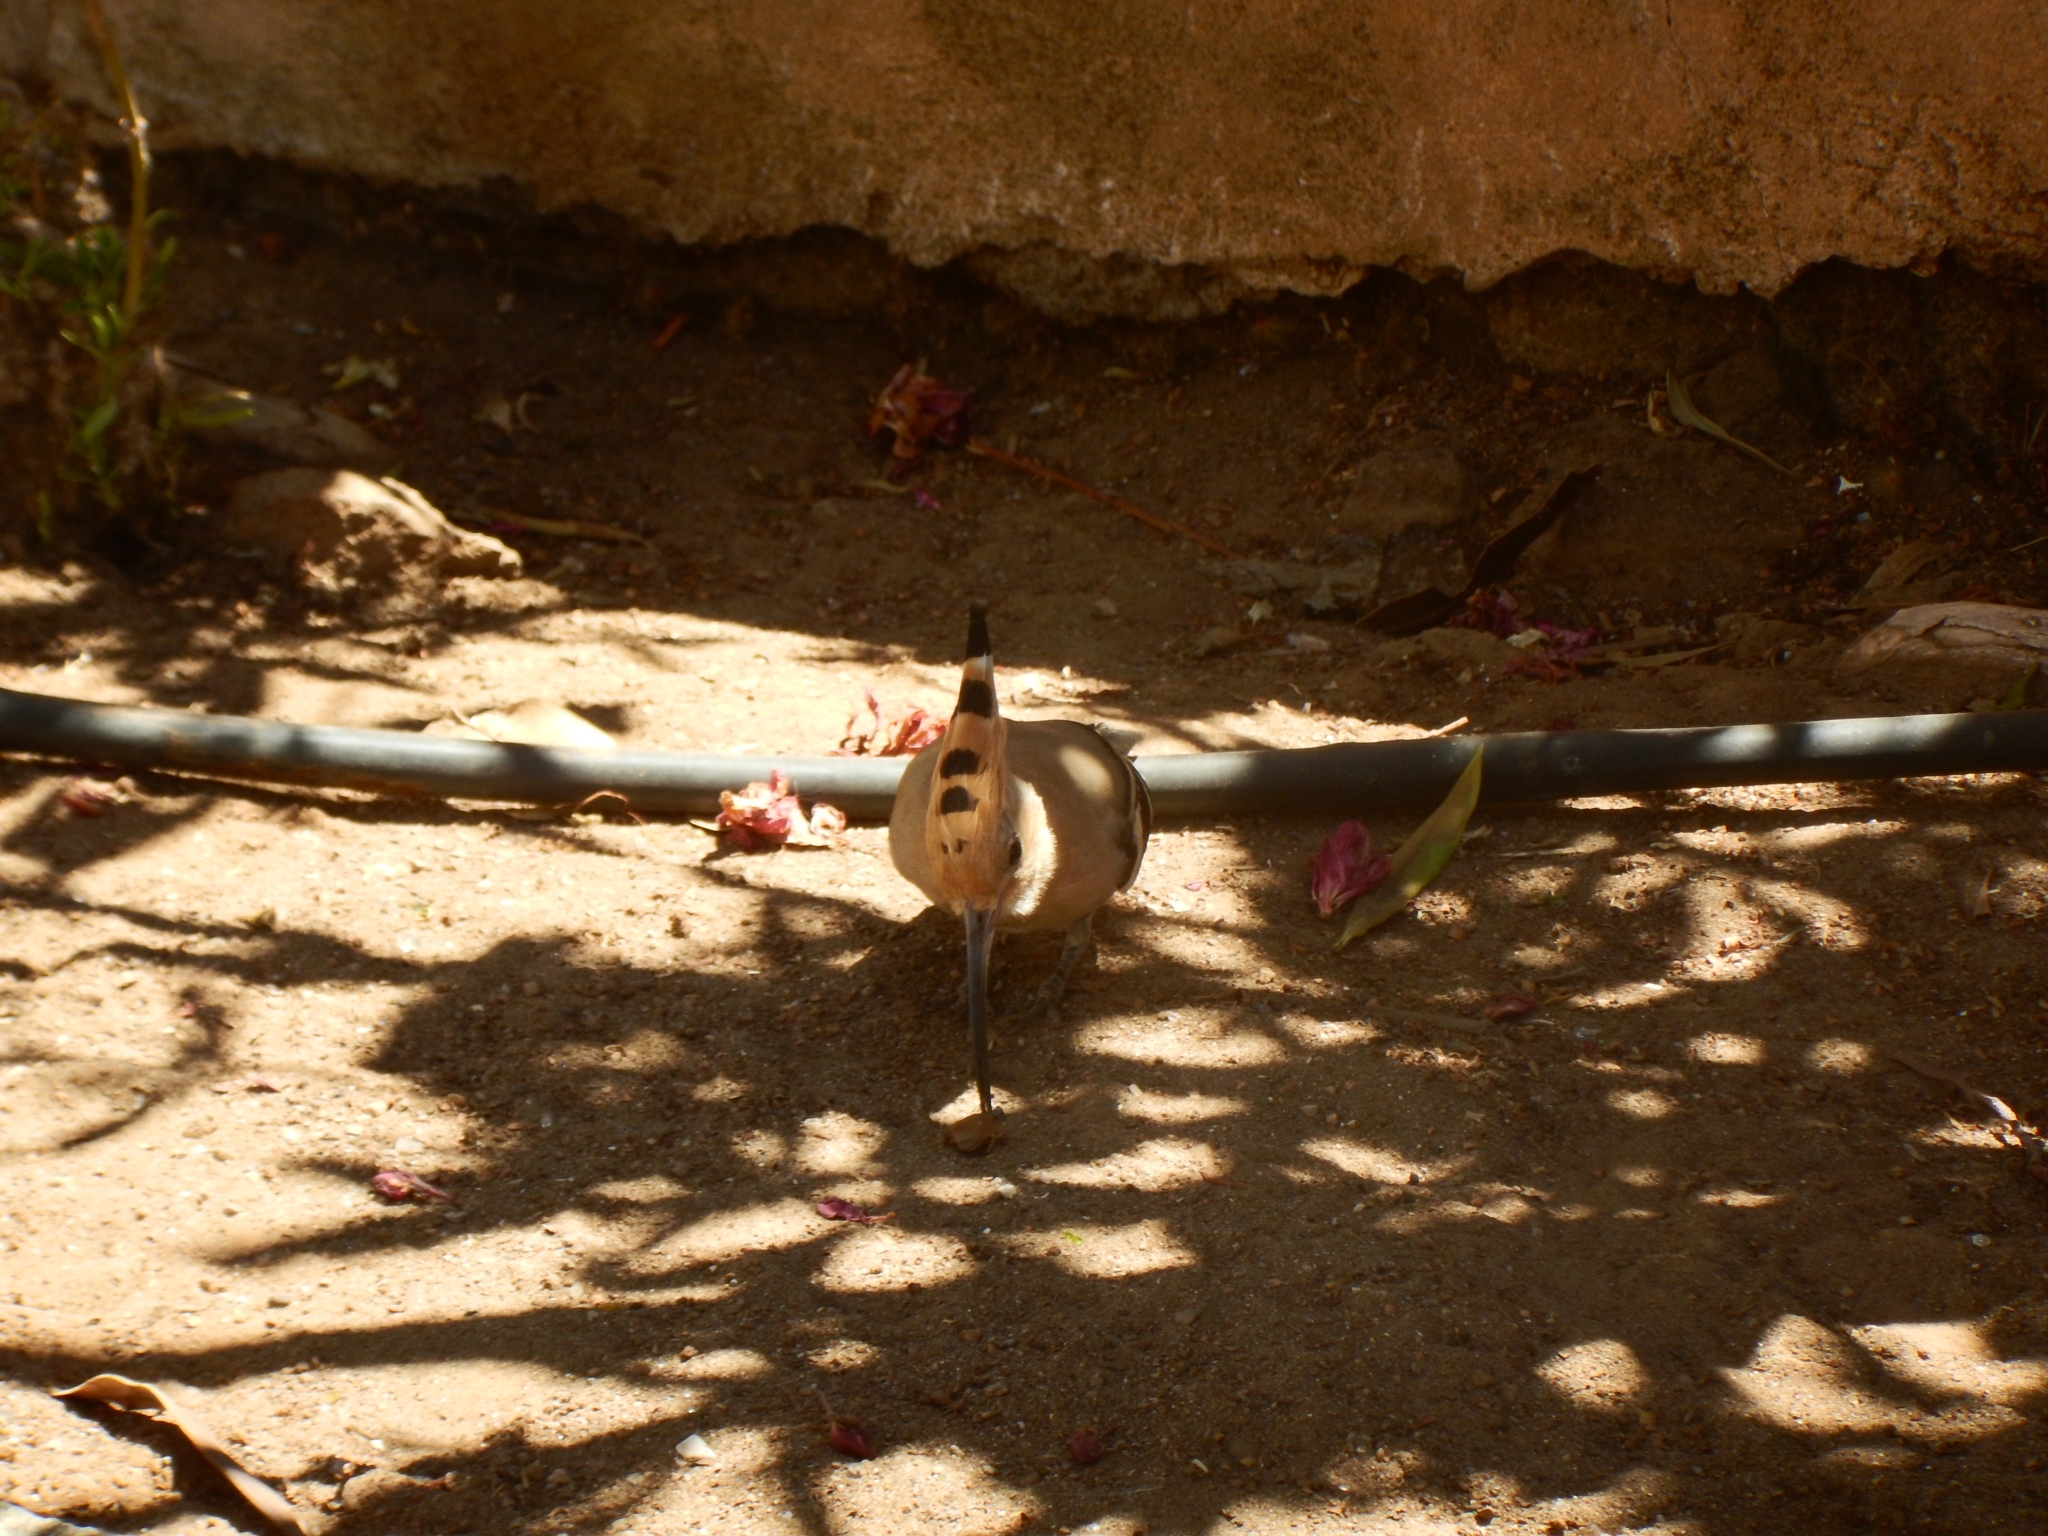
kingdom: Animalia
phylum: Chordata
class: Aves
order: Bucerotiformes
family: Upupidae
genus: Upupa
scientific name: Upupa epops
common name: Eurasian hoopoe
